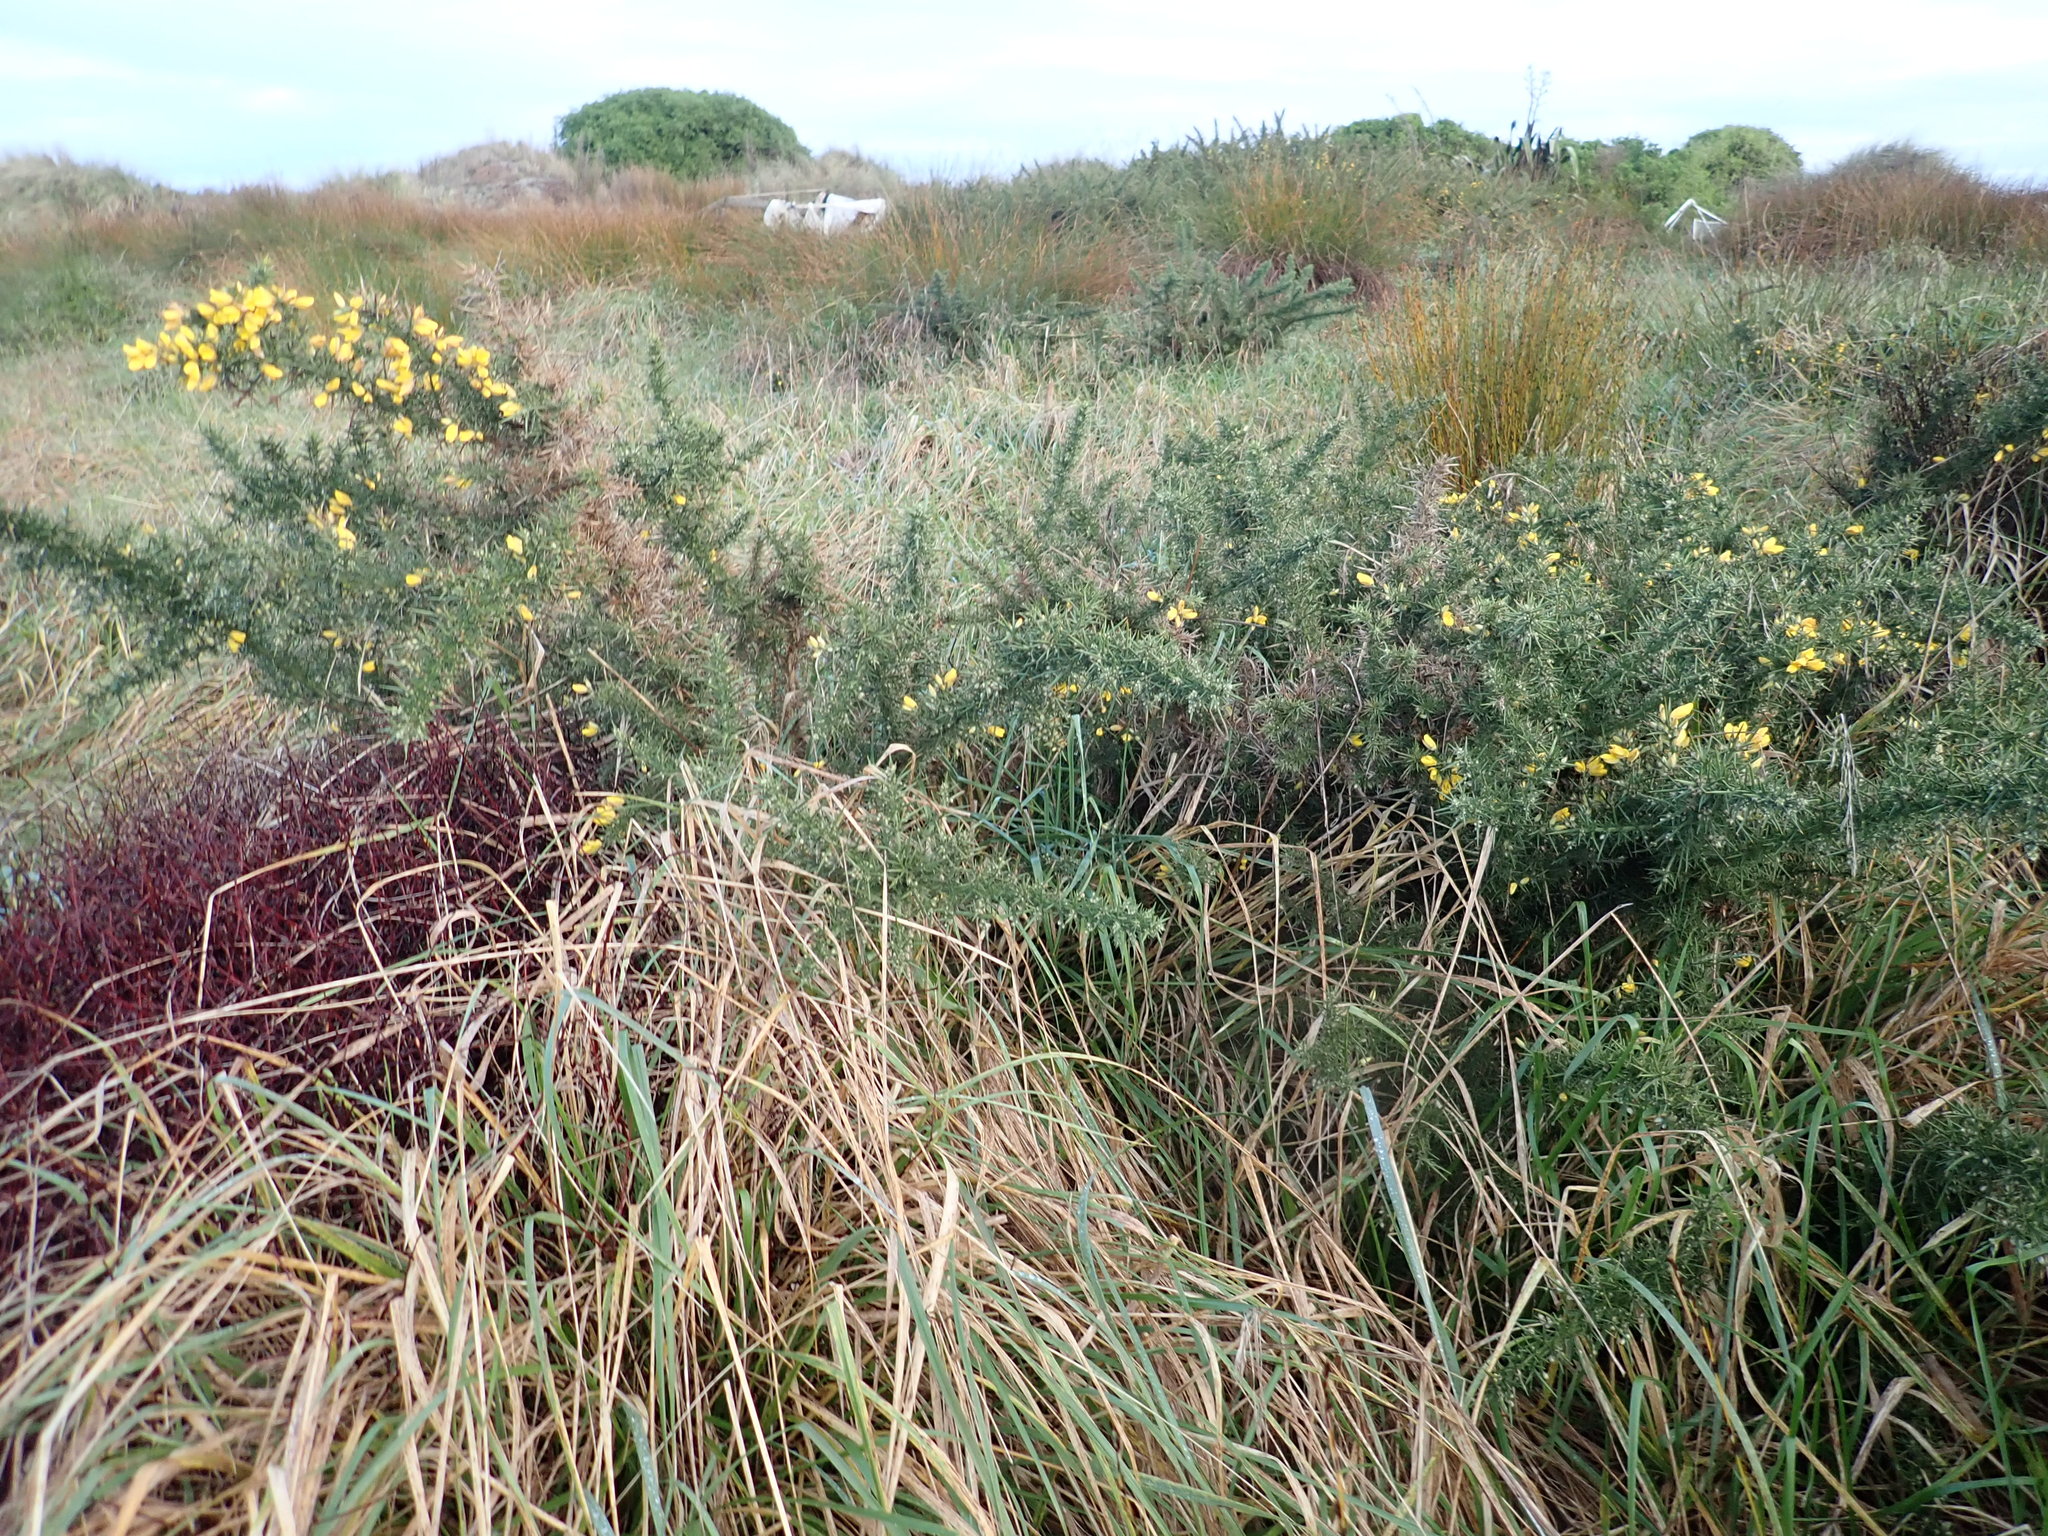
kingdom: Plantae
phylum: Tracheophyta
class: Magnoliopsida
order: Fabales
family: Fabaceae
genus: Ulex
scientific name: Ulex europaeus
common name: Common gorse
